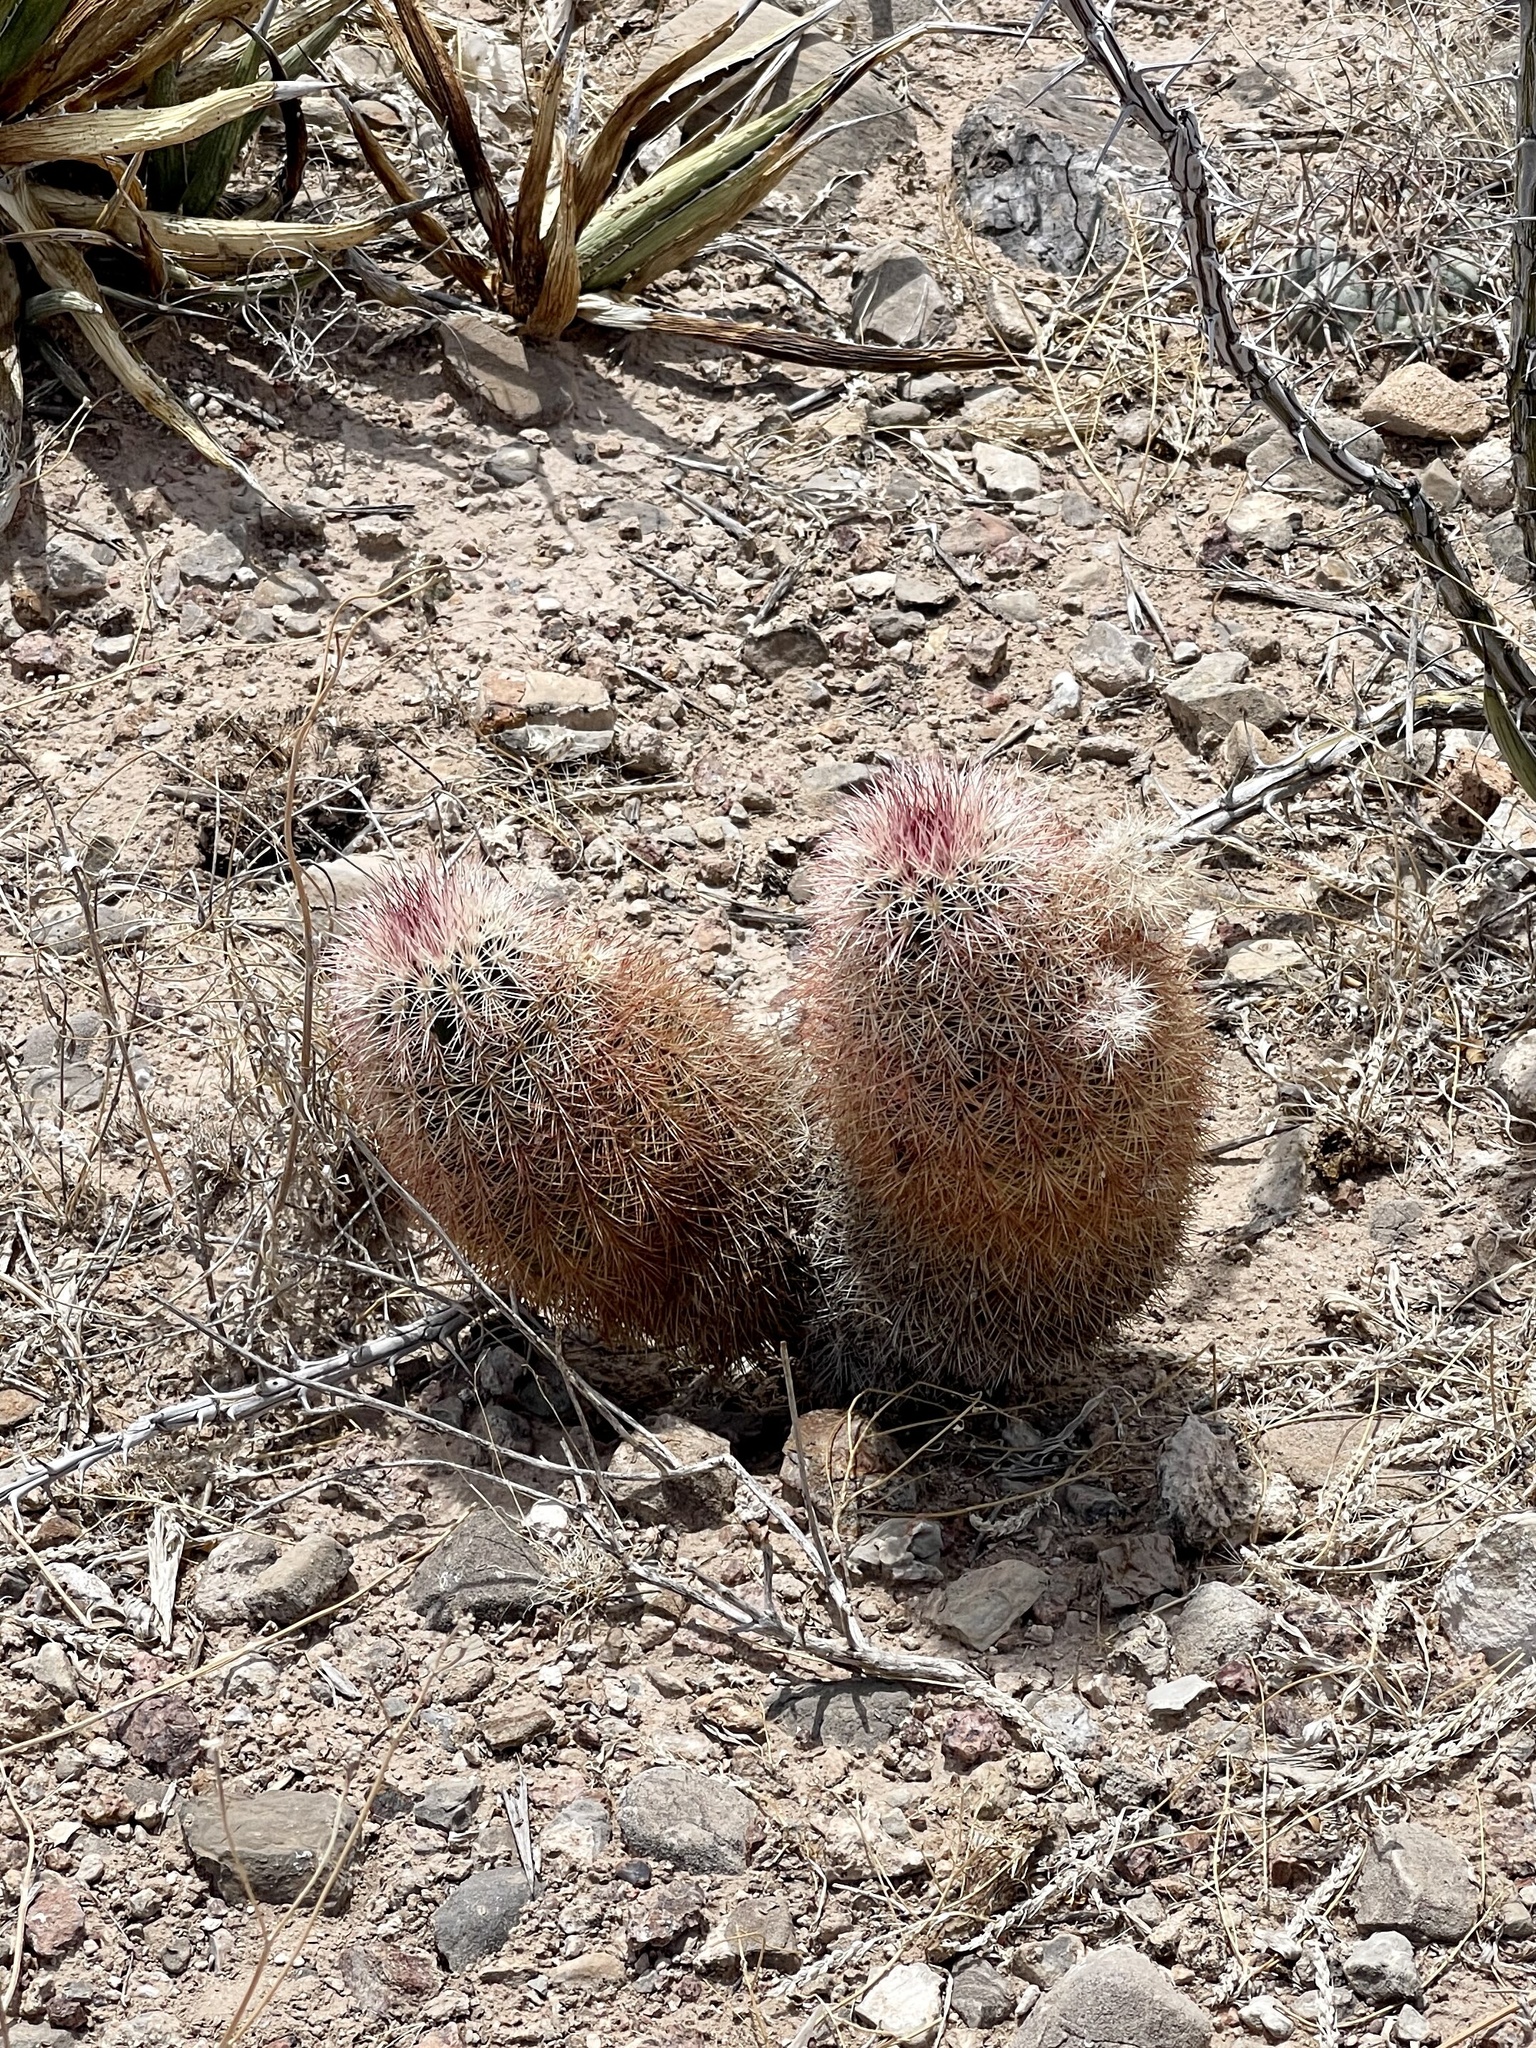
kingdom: Plantae
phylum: Tracheophyta
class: Magnoliopsida
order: Caryophyllales
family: Cactaceae
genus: Echinocereus
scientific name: Echinocereus dasyacanthus
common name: Spiny hedgehog cactus
